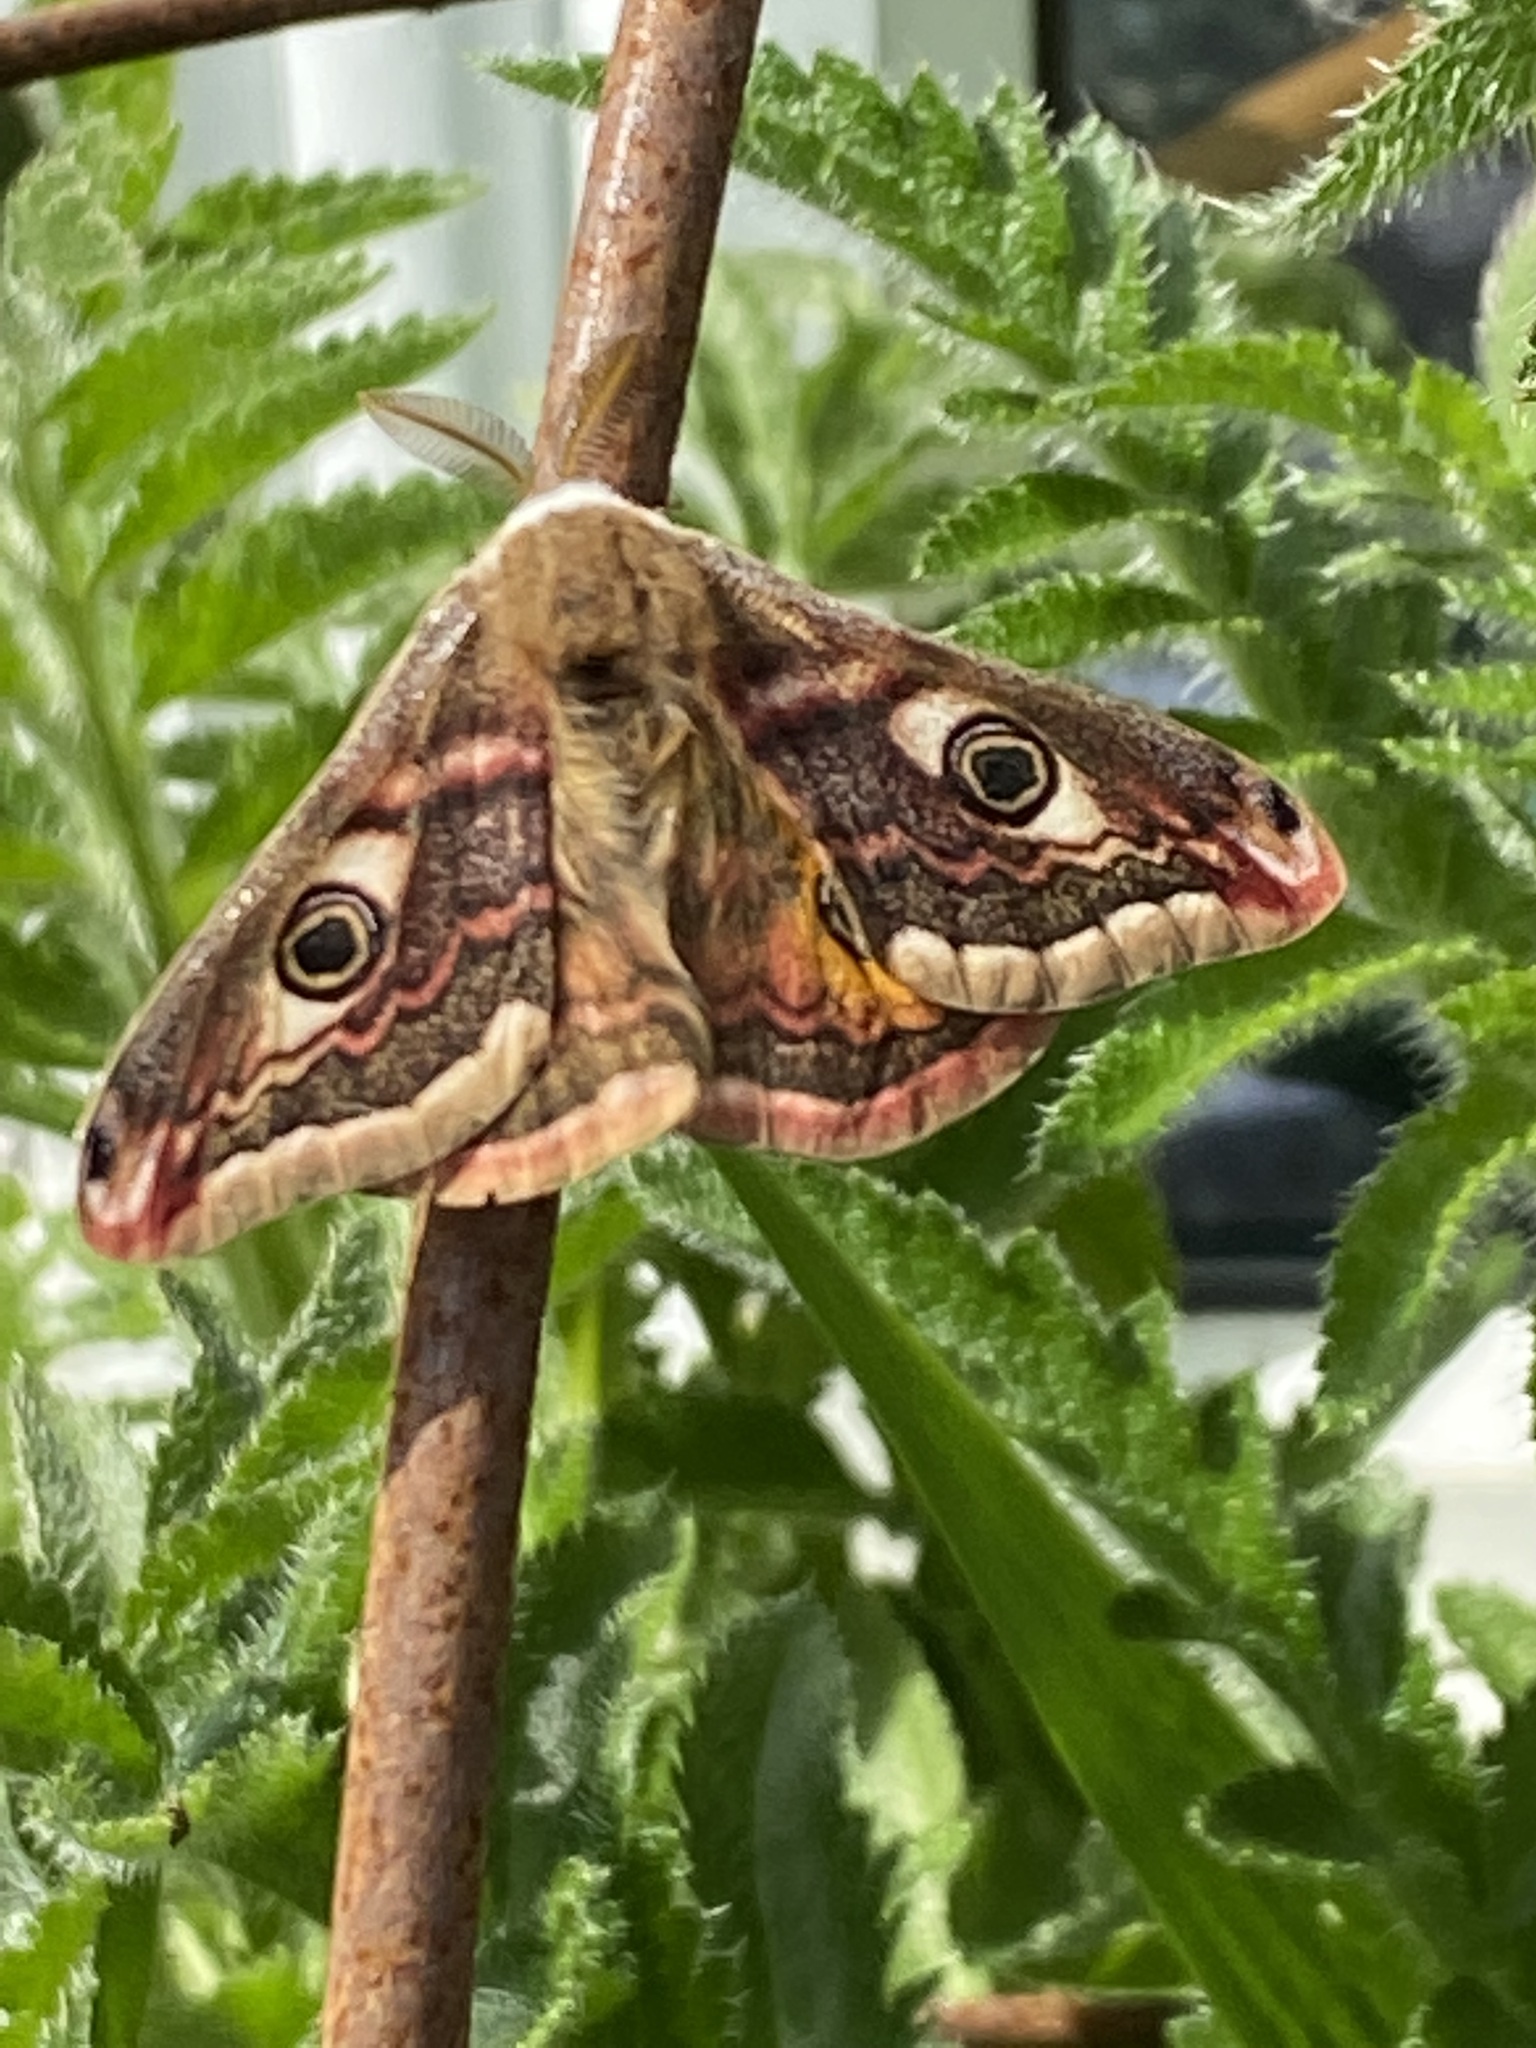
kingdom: Animalia
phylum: Arthropoda
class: Insecta
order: Lepidoptera
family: Saturniidae
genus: Saturnia
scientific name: Saturnia pavonia
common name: Emperor moth
